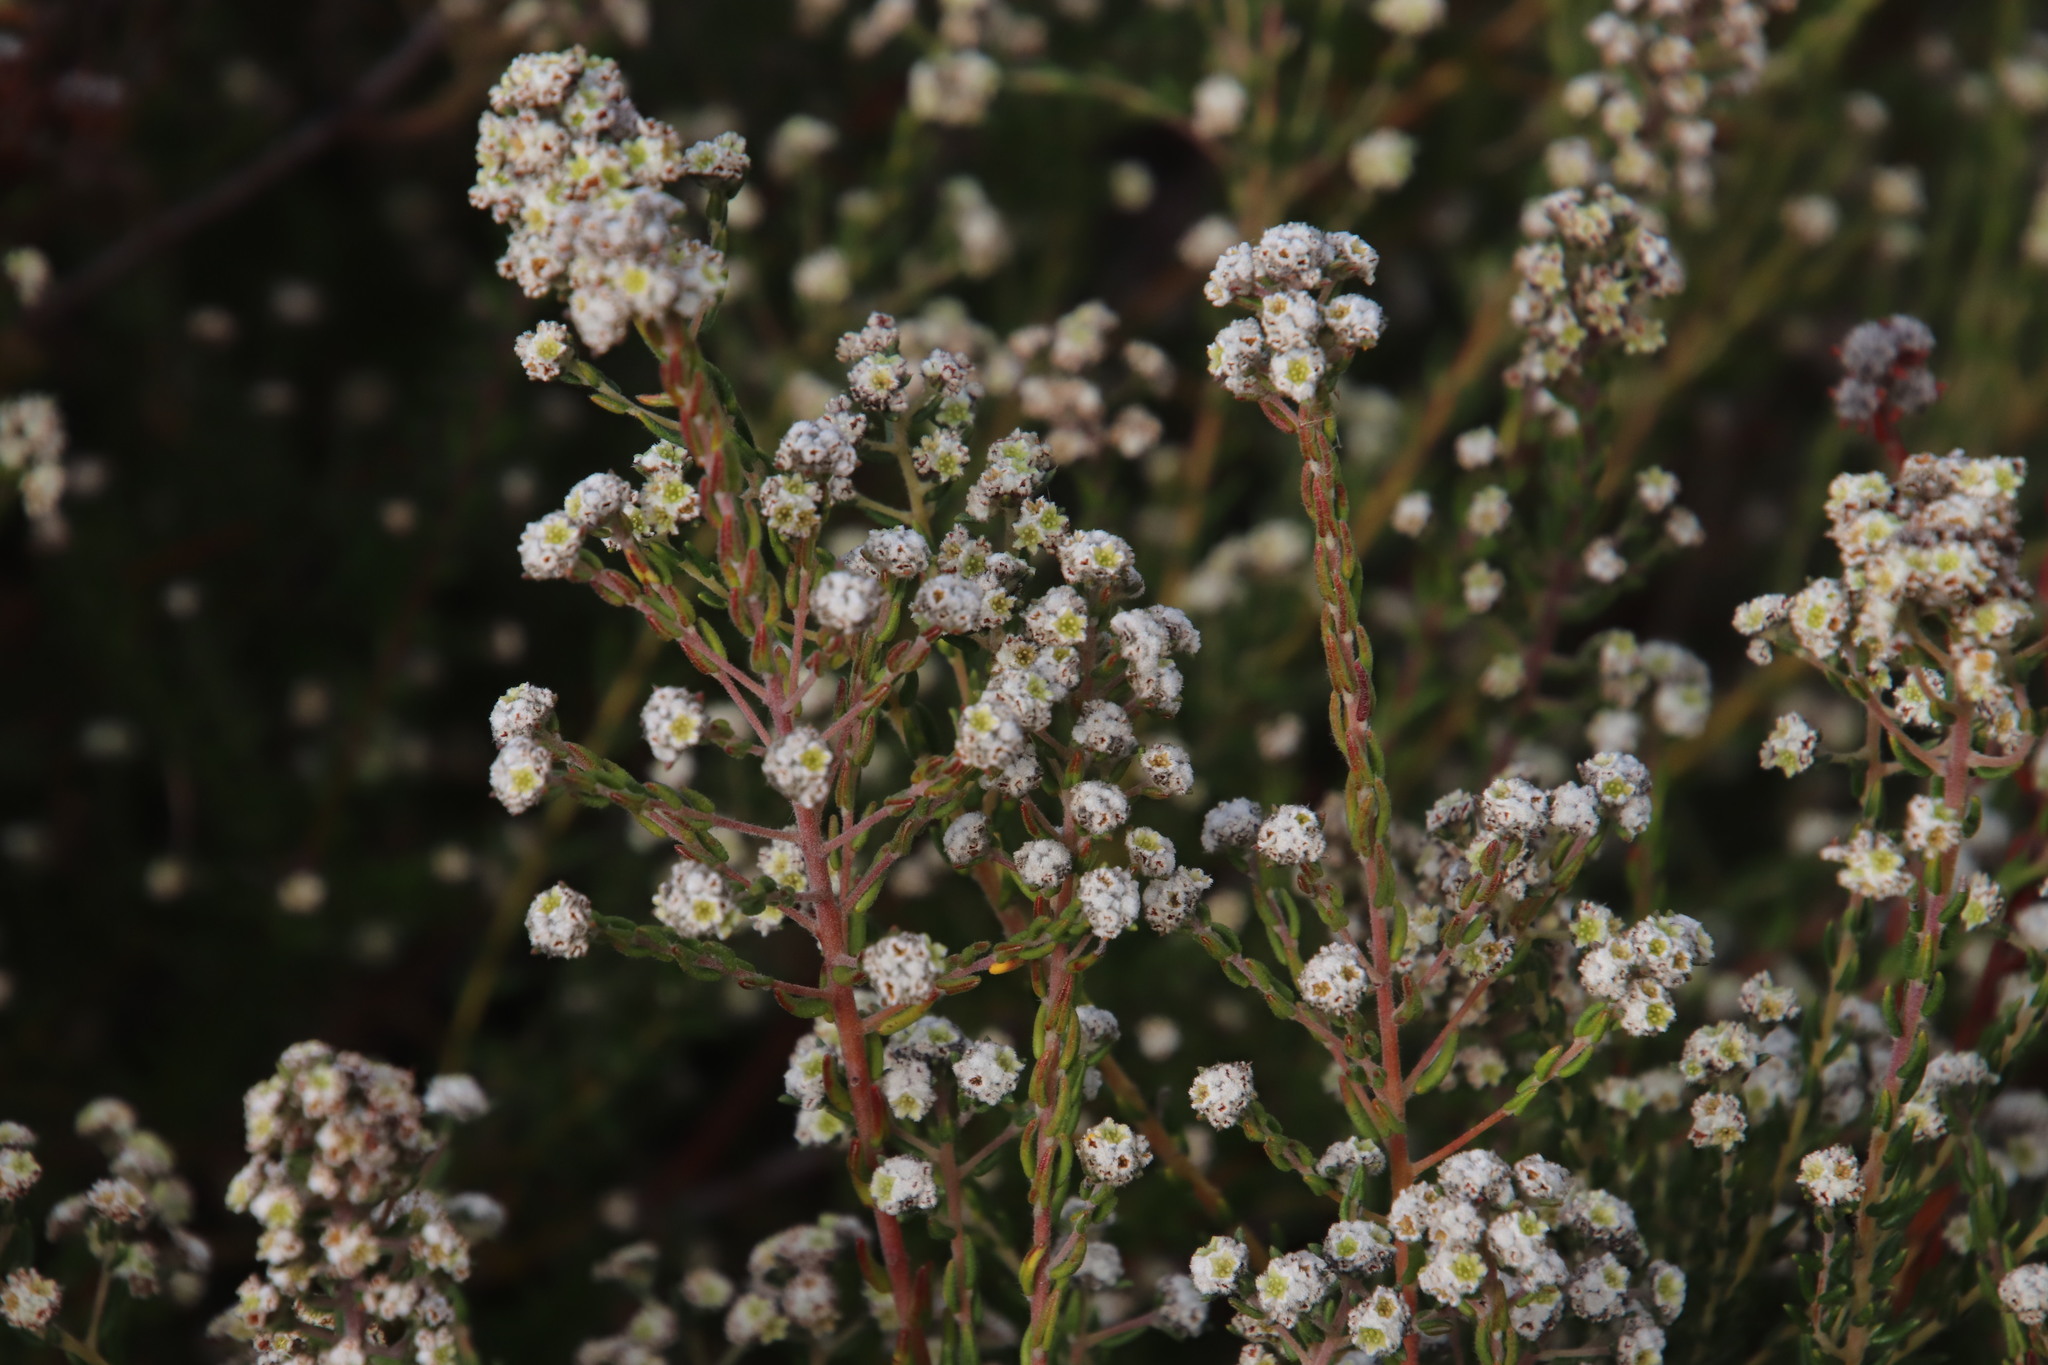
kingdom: Plantae
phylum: Tracheophyta
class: Magnoliopsida
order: Rosales
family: Rhamnaceae
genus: Phylica
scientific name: Phylica ericoides
